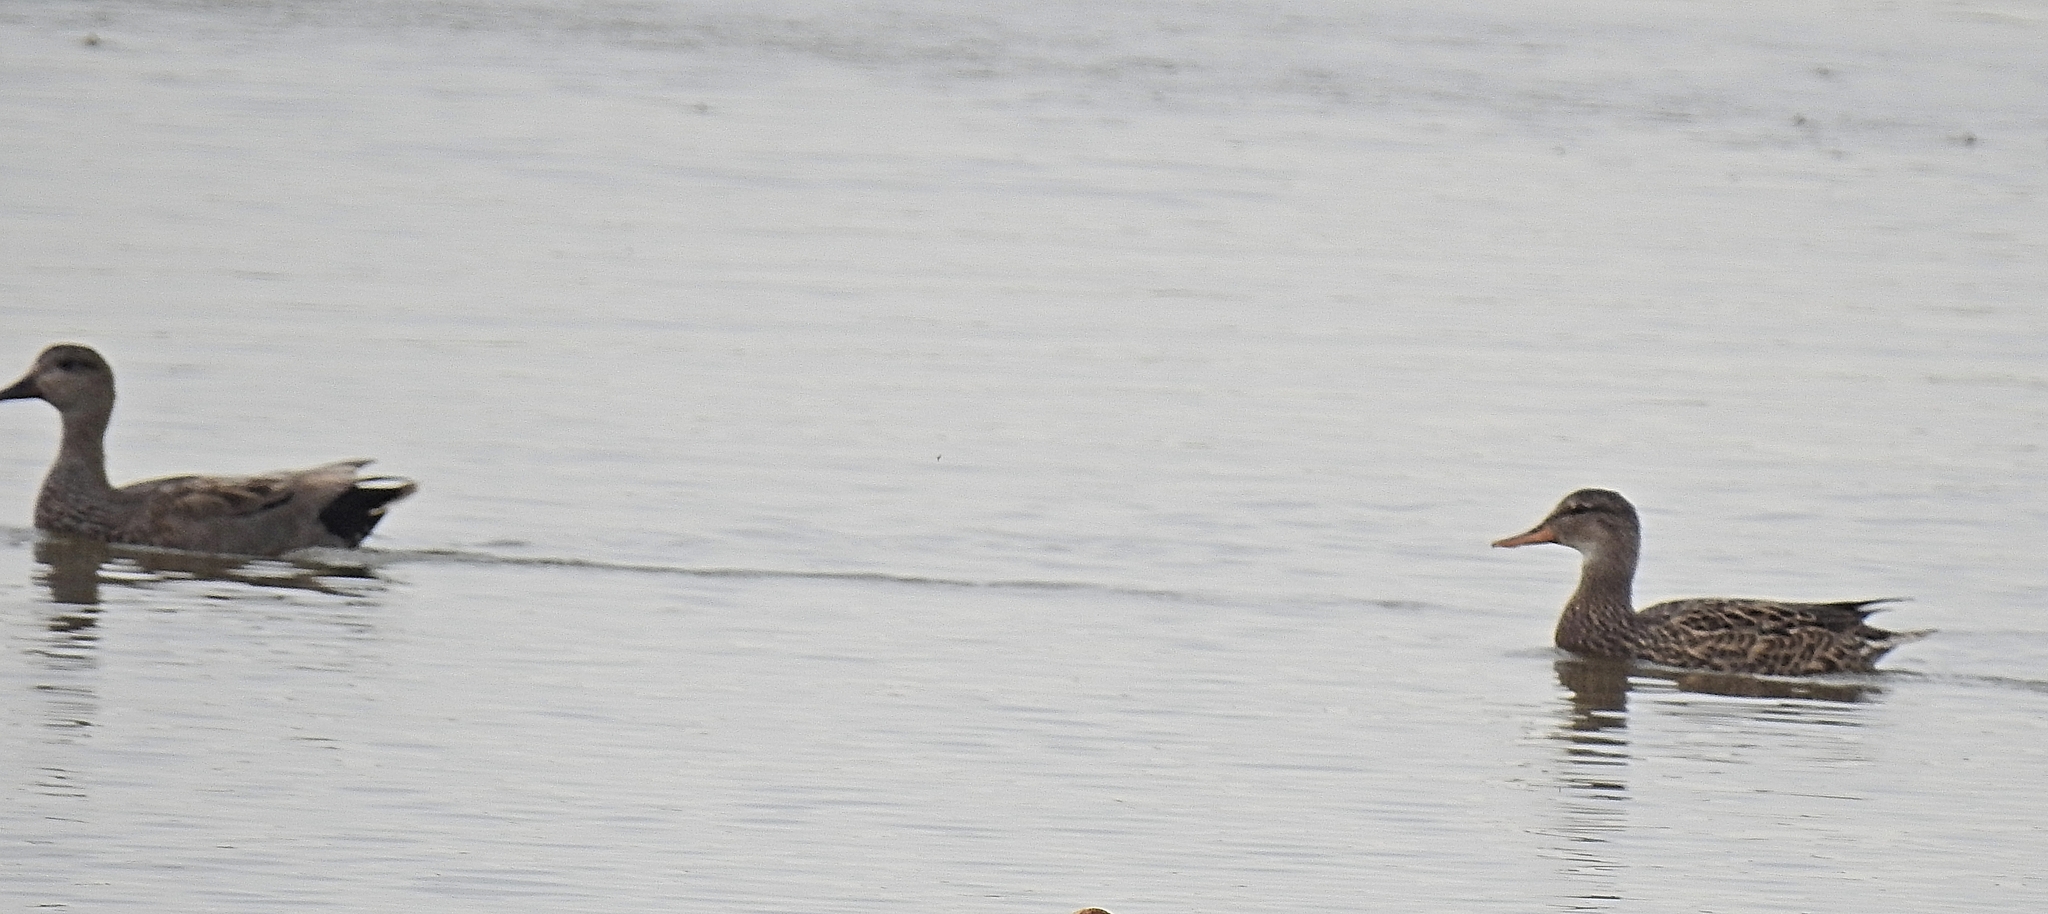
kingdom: Animalia
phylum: Chordata
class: Aves
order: Anseriformes
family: Anatidae
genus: Mareca
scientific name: Mareca strepera
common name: Gadwall
